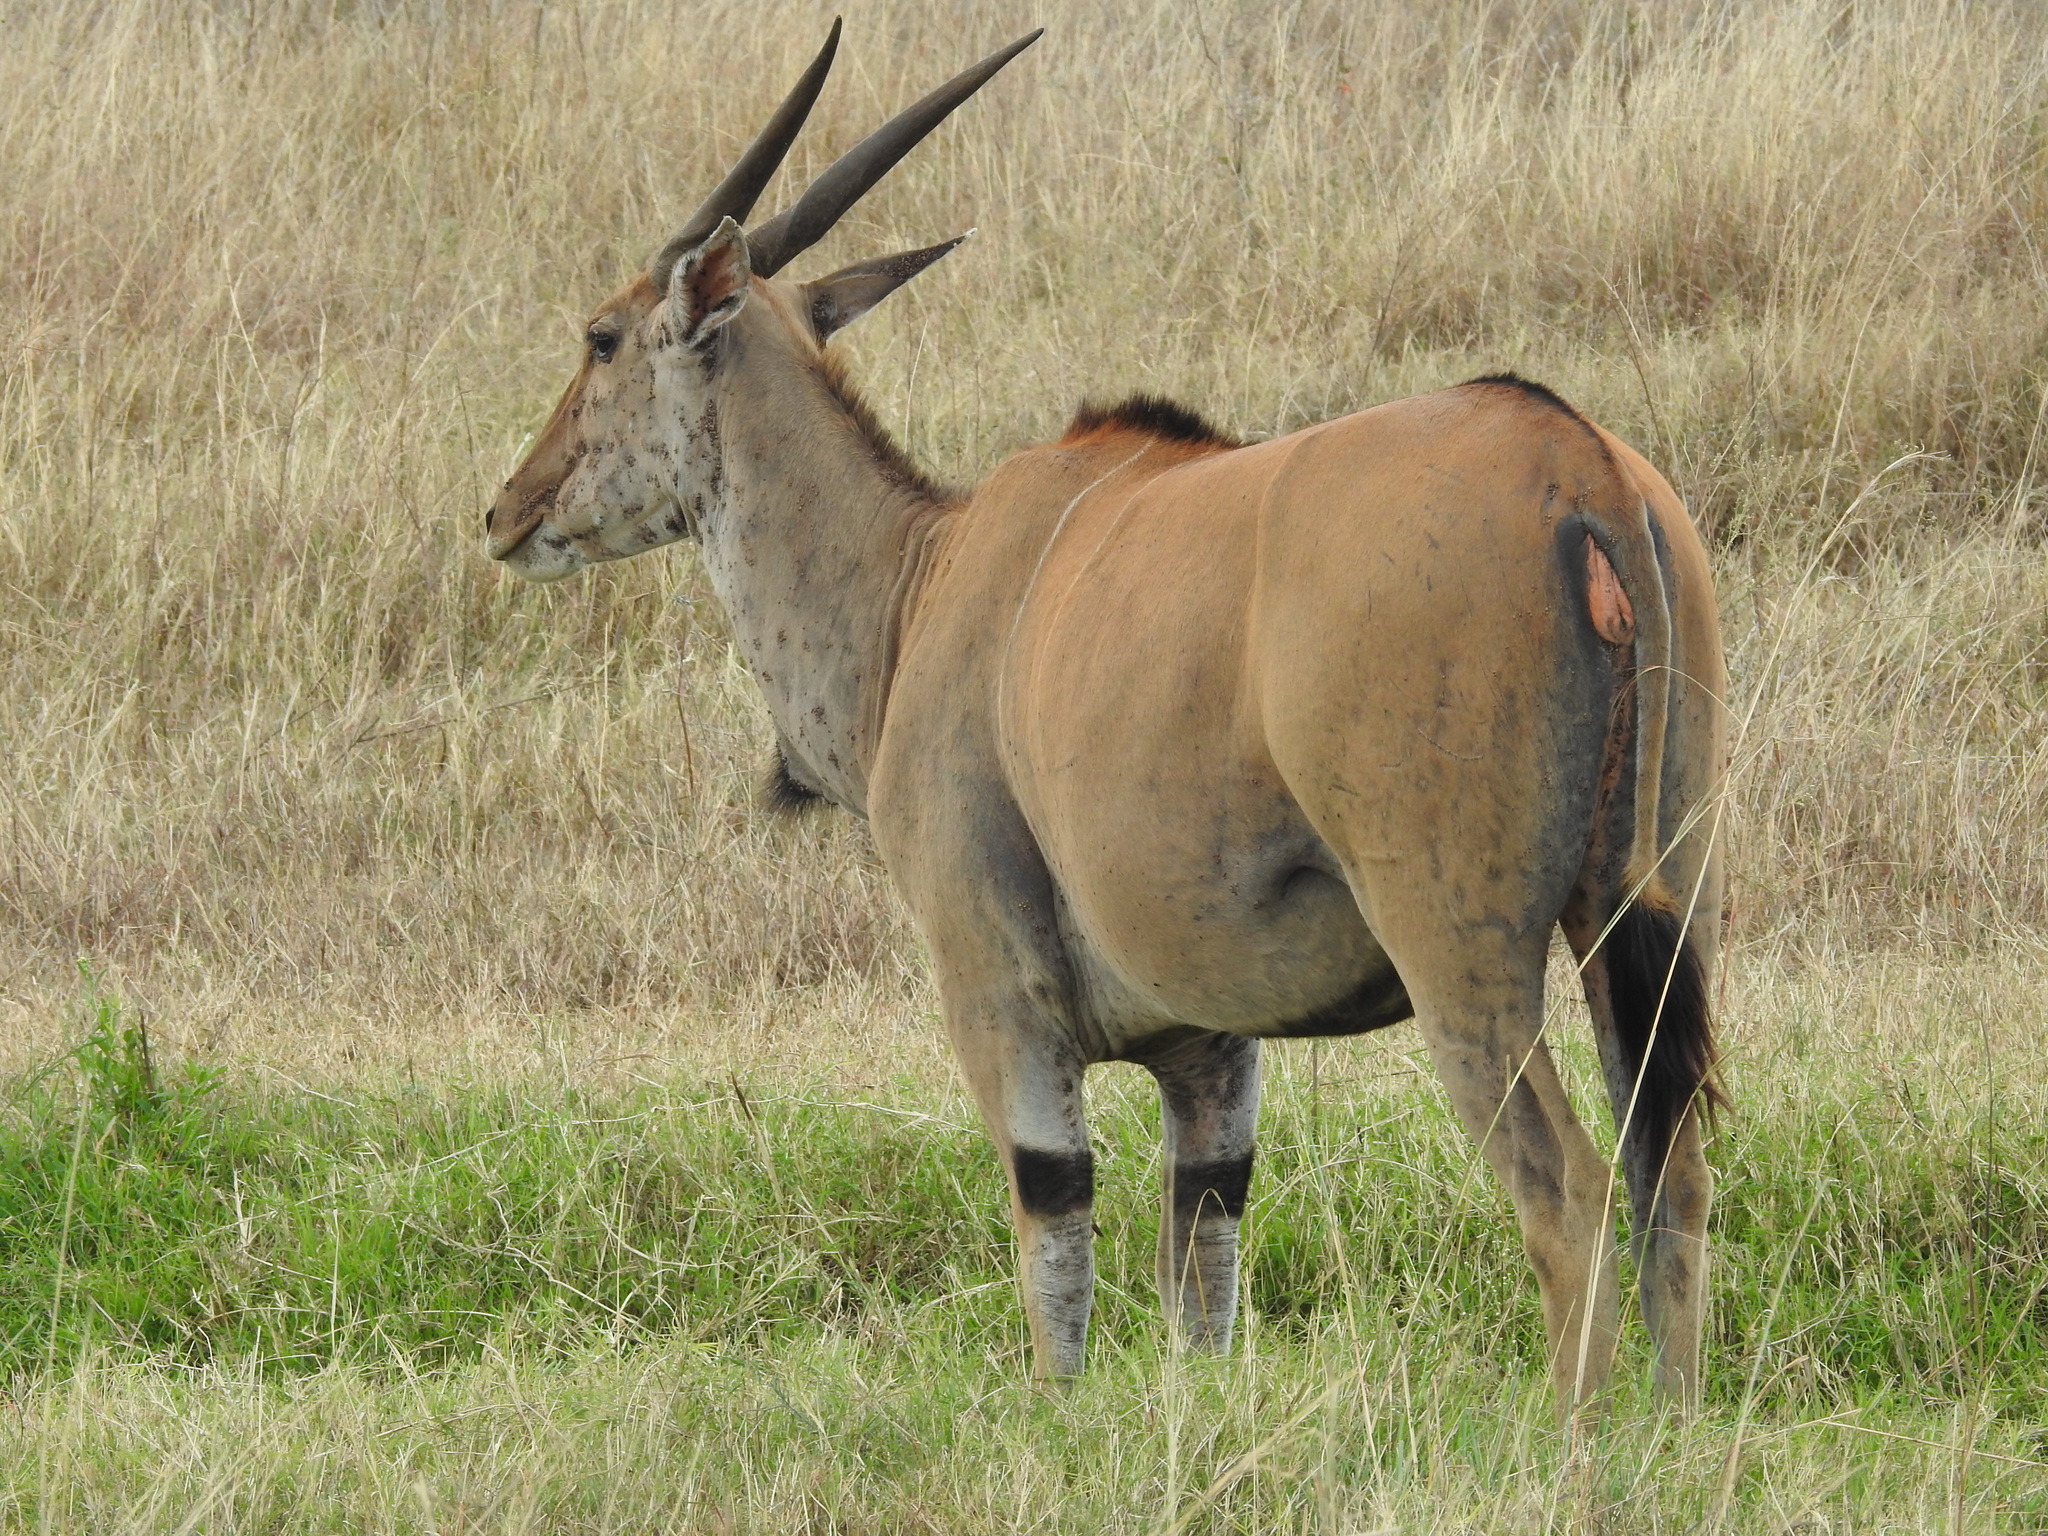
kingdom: Animalia
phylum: Chordata
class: Mammalia
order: Artiodactyla
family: Bovidae
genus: Taurotragus
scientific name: Taurotragus oryx
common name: Common eland
